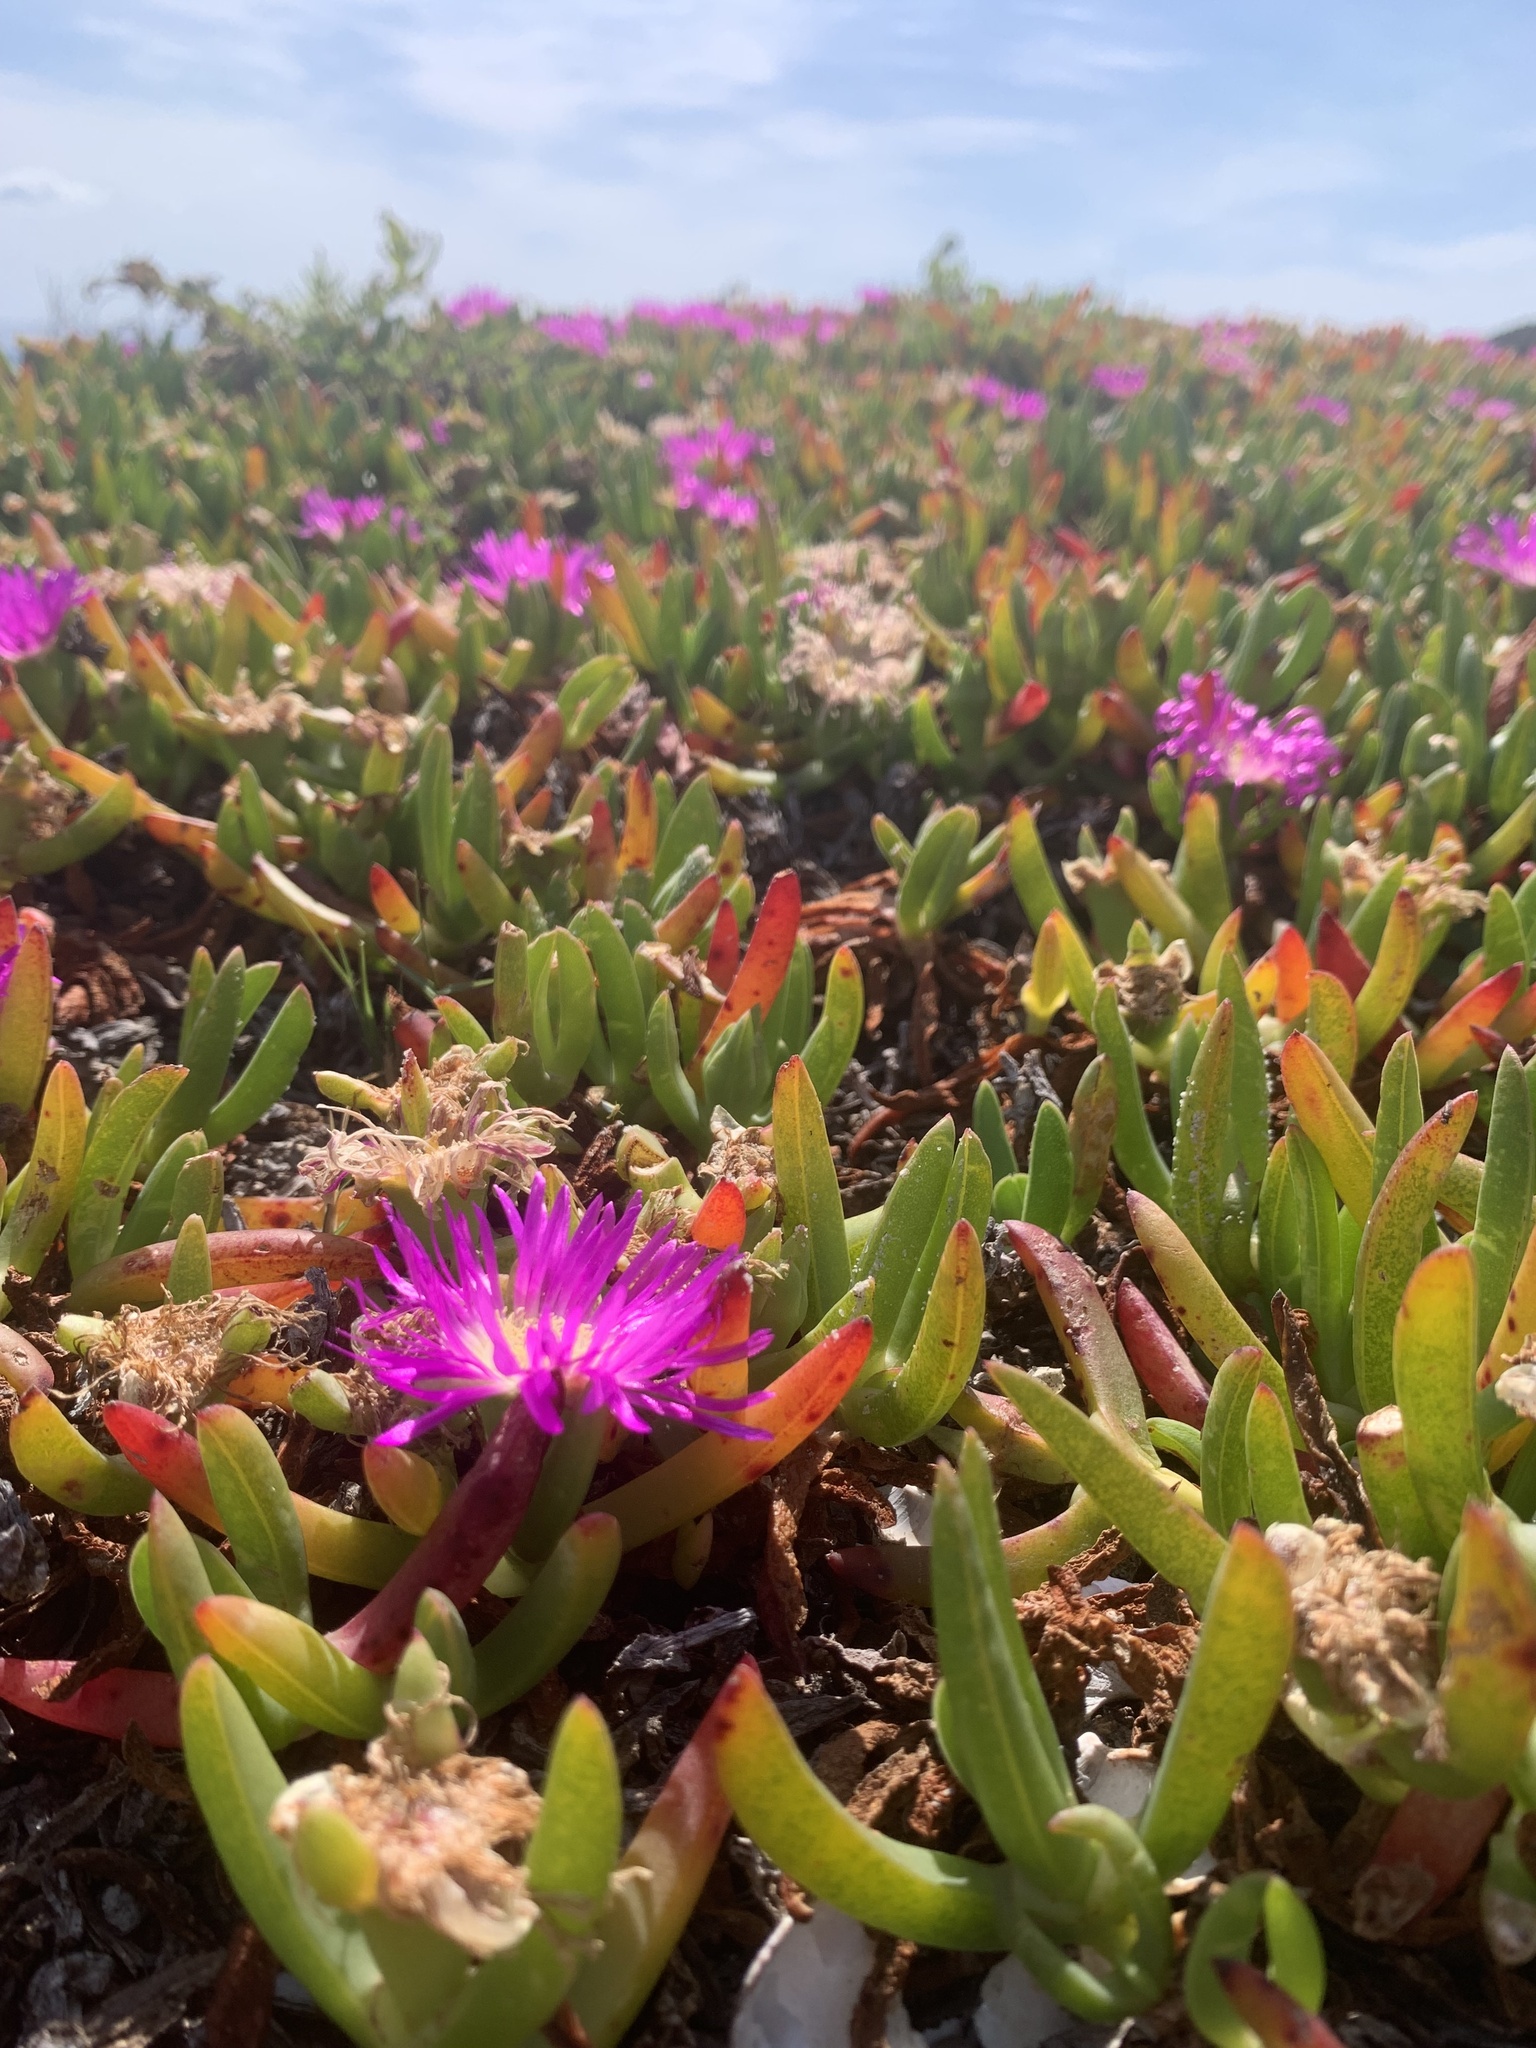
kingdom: Plantae
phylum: Tracheophyta
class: Magnoliopsida
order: Caryophyllales
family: Aizoaceae
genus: Carpobrotus
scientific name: Carpobrotus rossii
